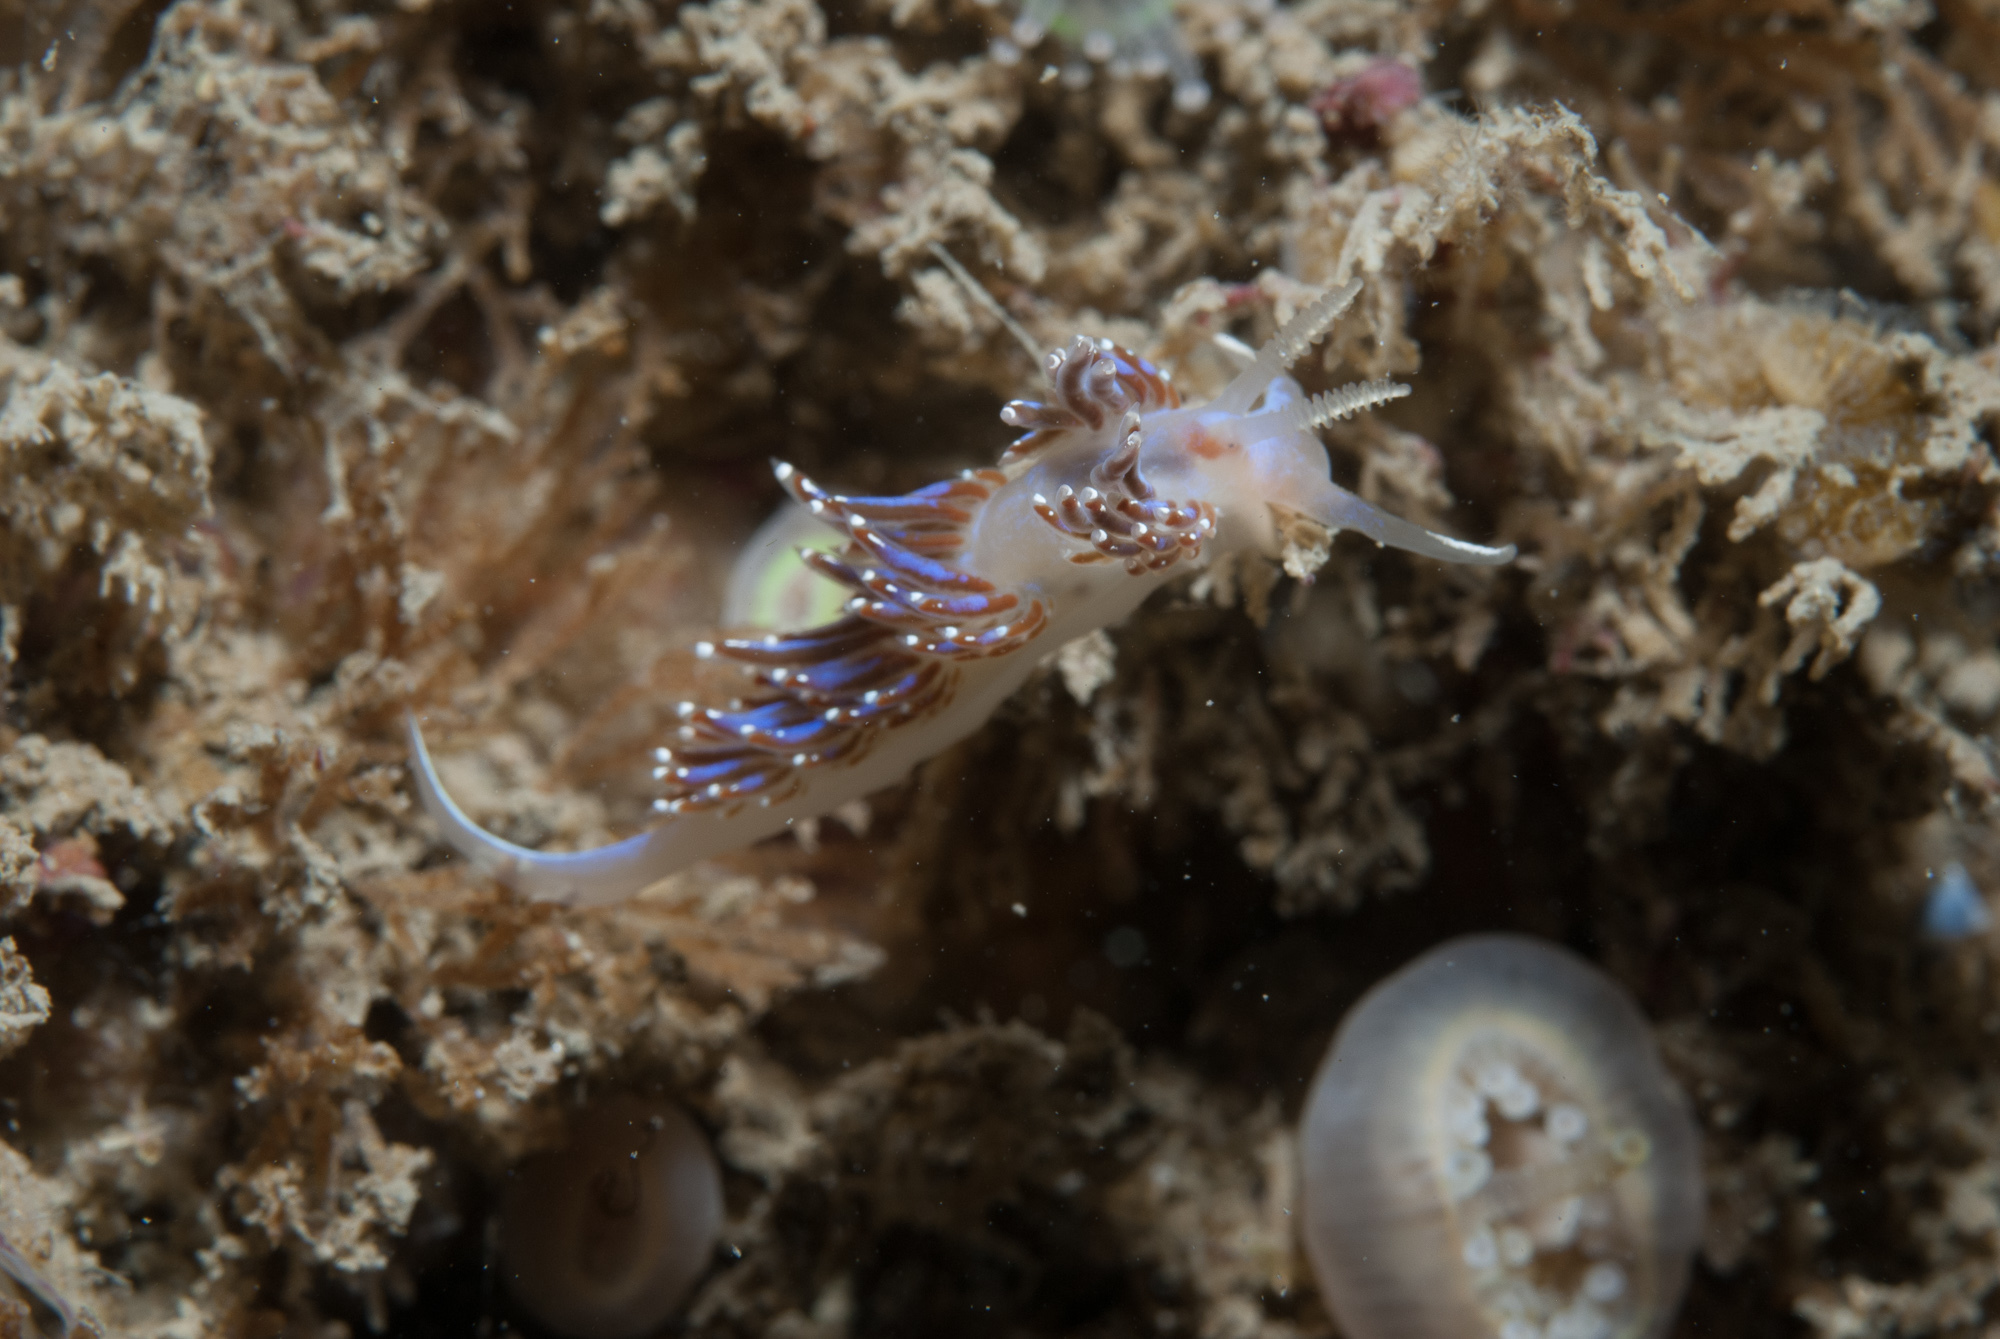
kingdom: Animalia
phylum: Mollusca
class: Gastropoda
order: Nudibranchia
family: Facelinidae
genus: Facelina
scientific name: Facelina auriculata
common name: Slender facelina
